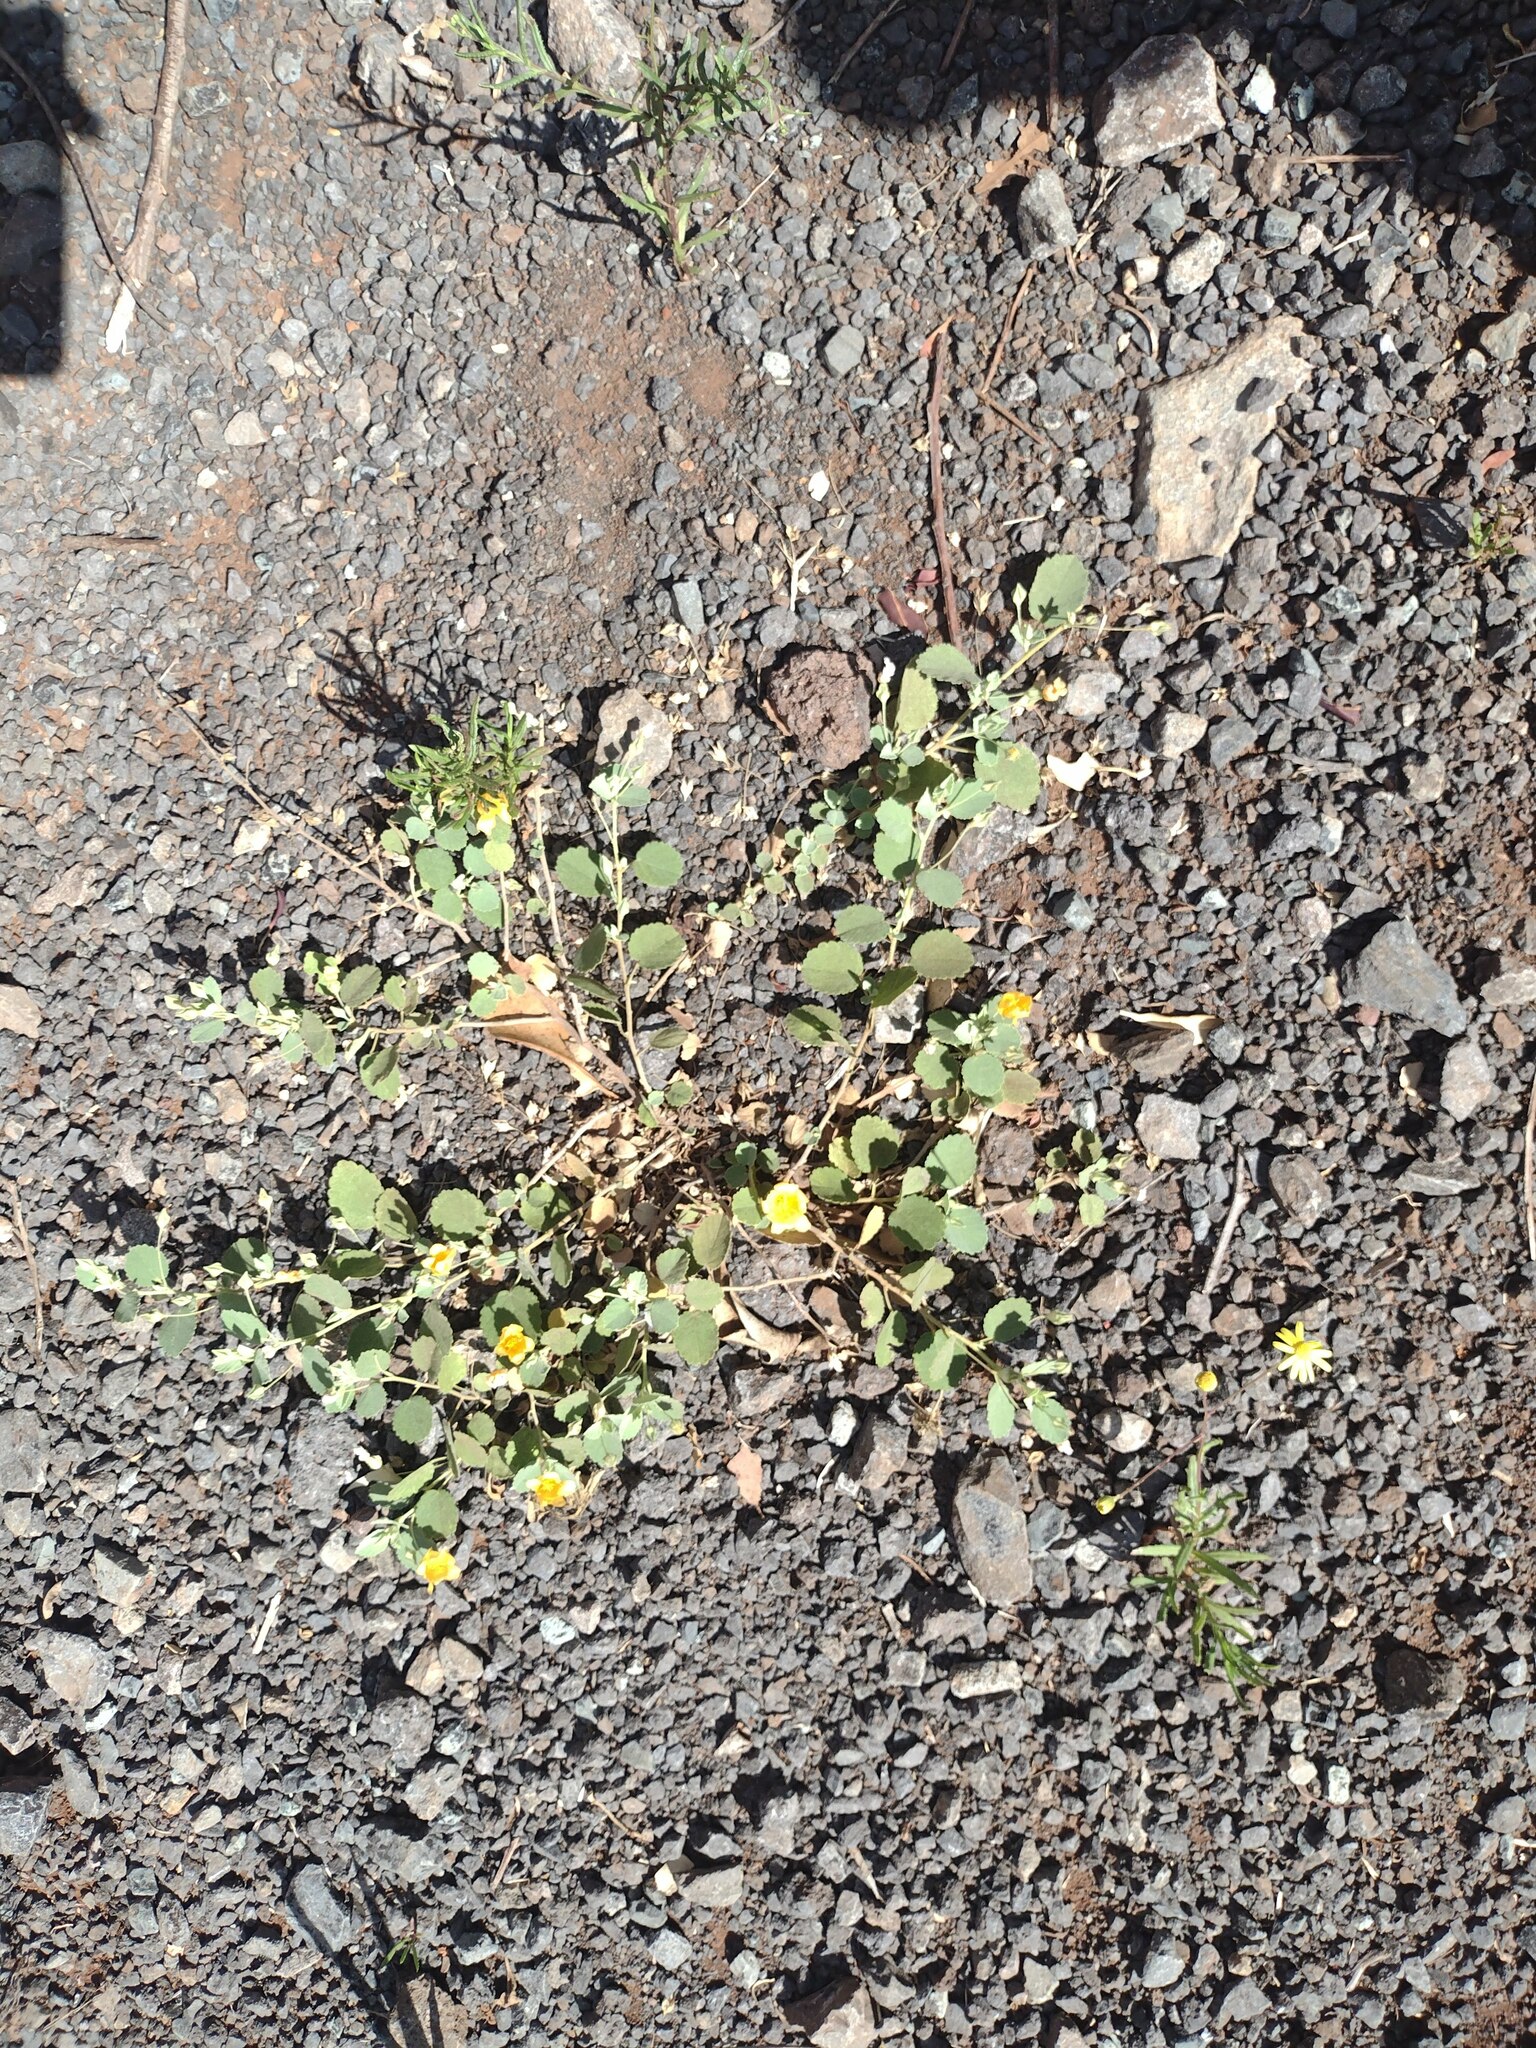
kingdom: Plantae
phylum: Tracheophyta
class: Magnoliopsida
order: Malvales
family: Malvaceae
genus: Sida
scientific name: Sida fallax
